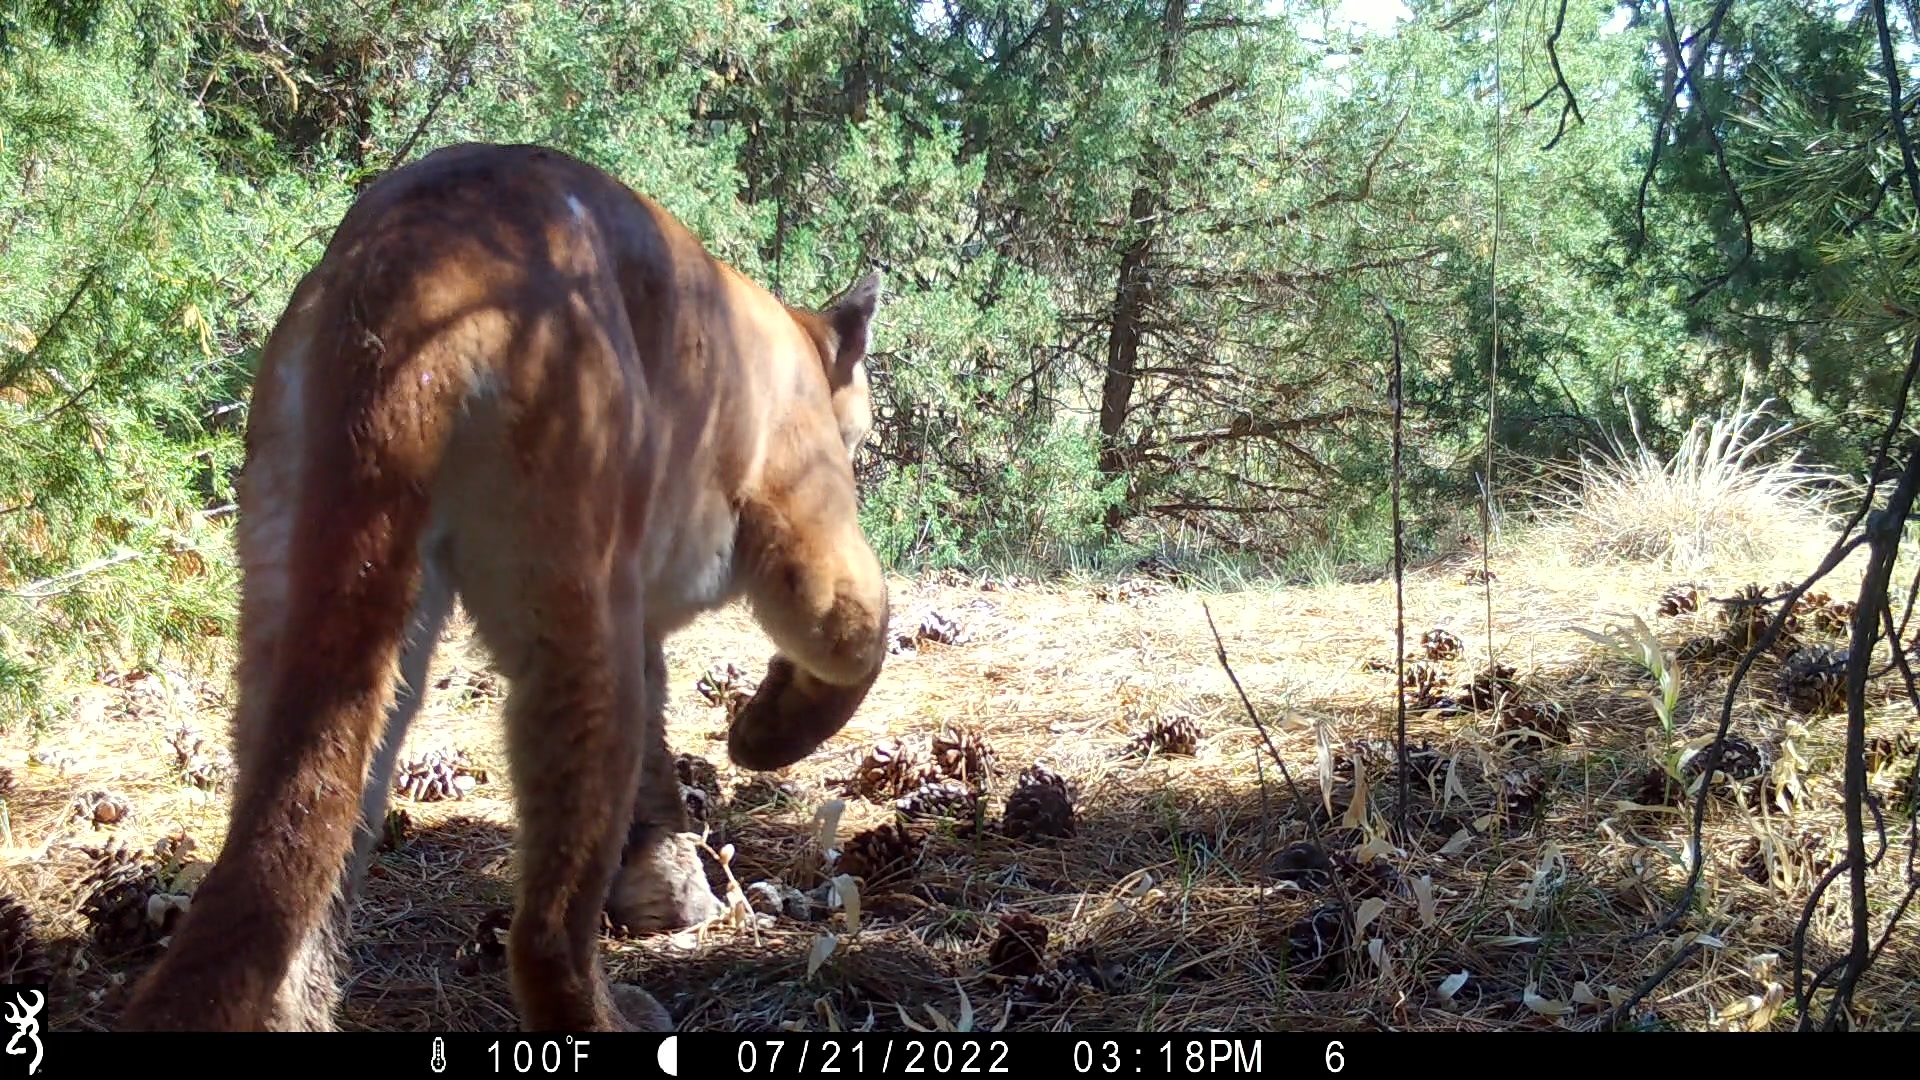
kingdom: Animalia
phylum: Chordata
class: Mammalia
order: Carnivora
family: Felidae
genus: Puma
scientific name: Puma concolor
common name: Puma
